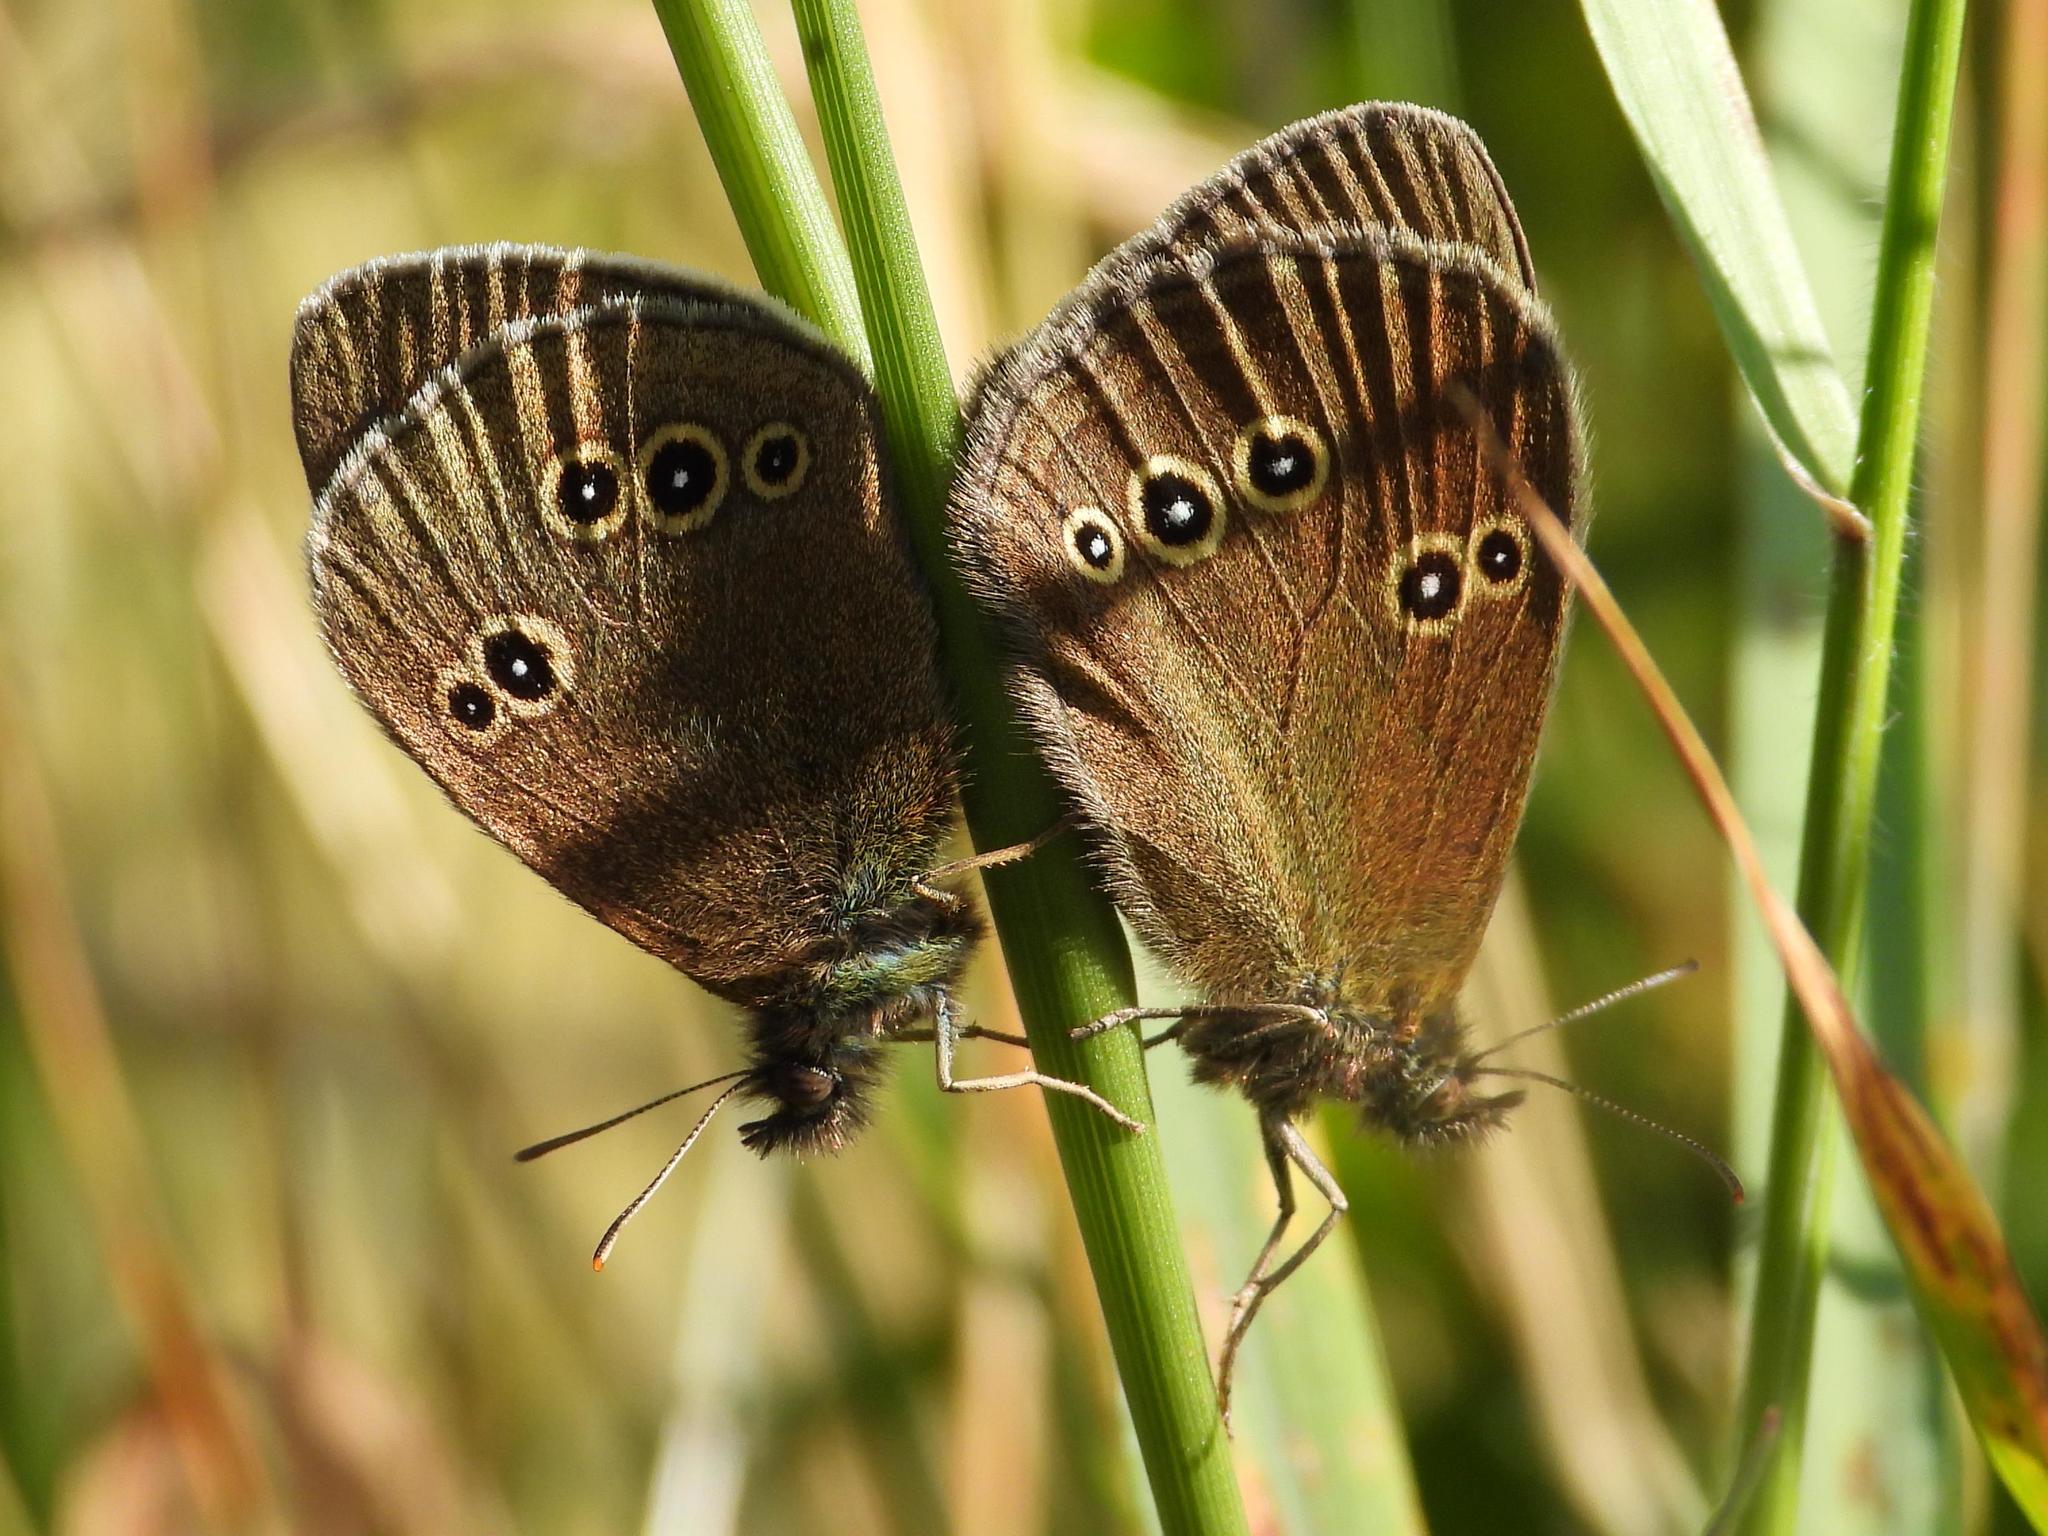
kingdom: Animalia
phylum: Arthropoda
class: Insecta
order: Lepidoptera
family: Nymphalidae
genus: Aphantopus
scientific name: Aphantopus hyperantus
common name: Ringlet
